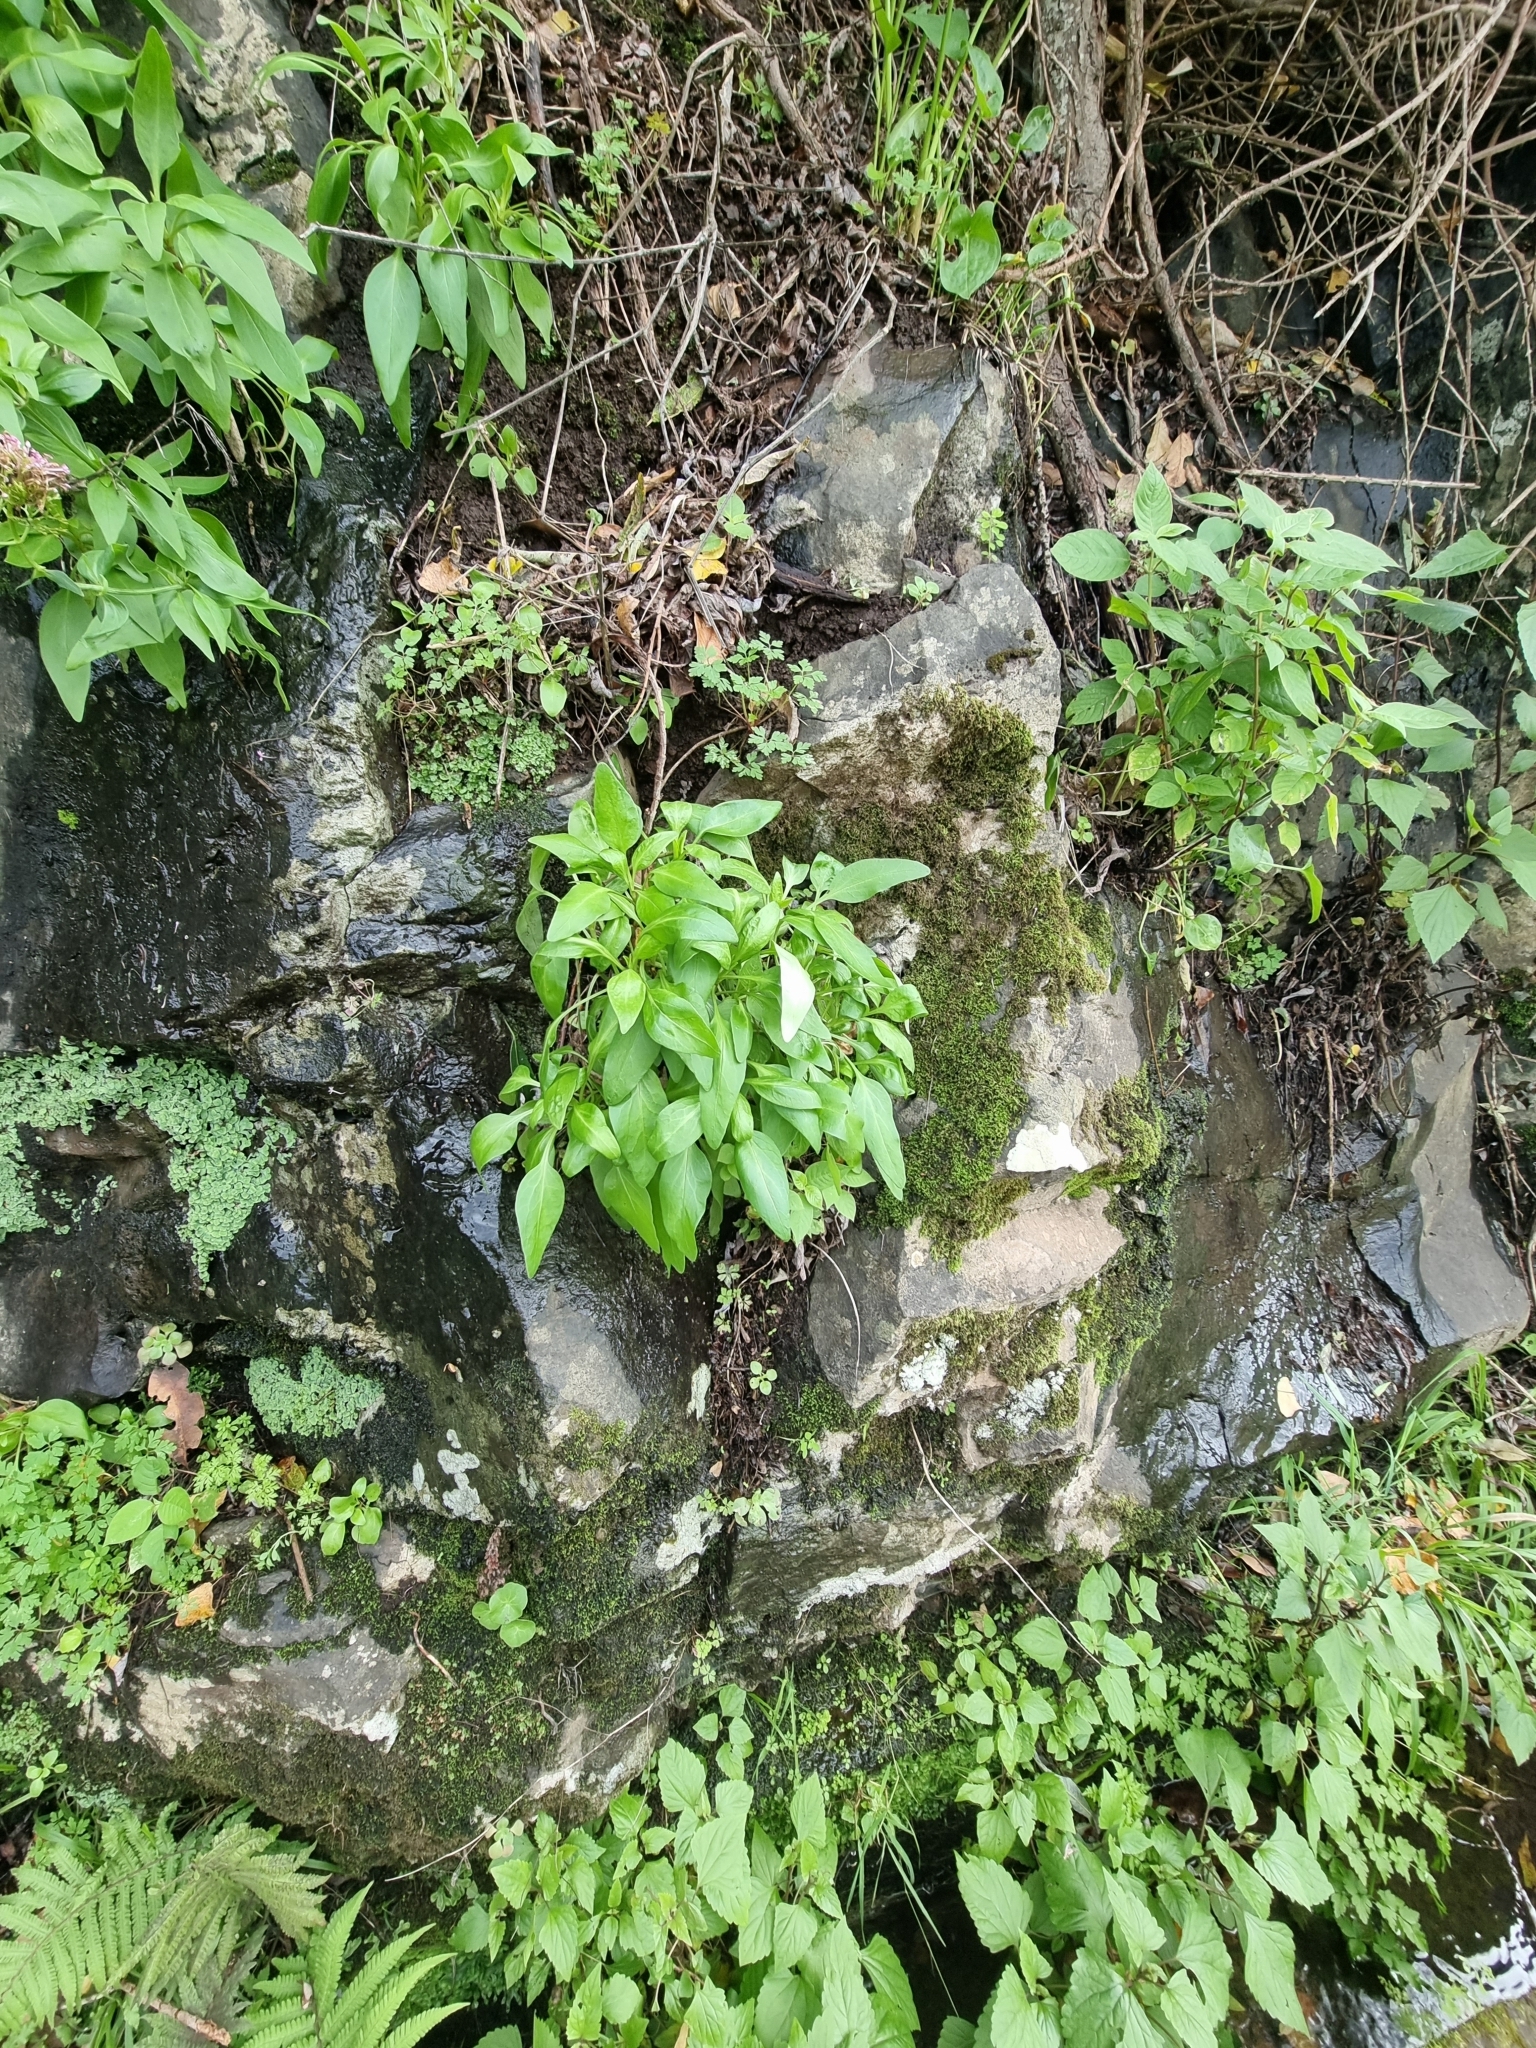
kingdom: Plantae
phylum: Tracheophyta
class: Magnoliopsida
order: Dipsacales
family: Caprifoliaceae
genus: Centranthus
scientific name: Centranthus ruber
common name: Red valerian
